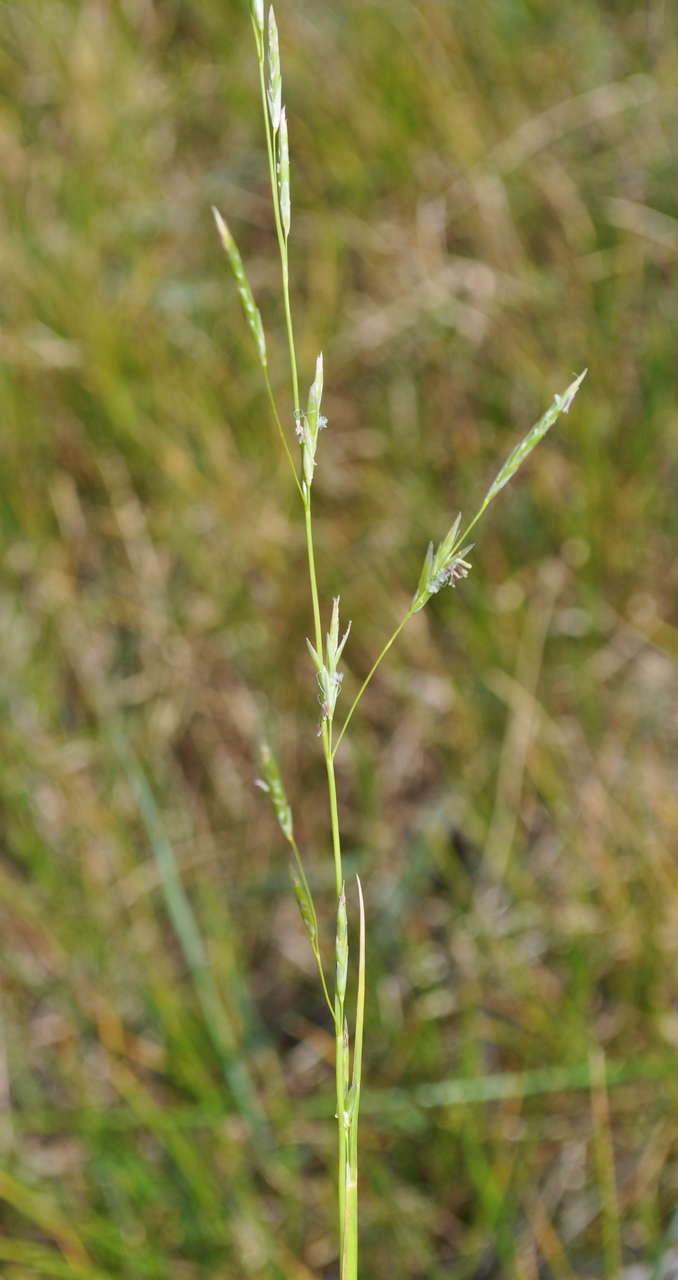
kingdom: Plantae
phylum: Tracheophyta
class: Liliopsida
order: Poales
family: Poaceae
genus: Glyceria
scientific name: Glyceria australis
